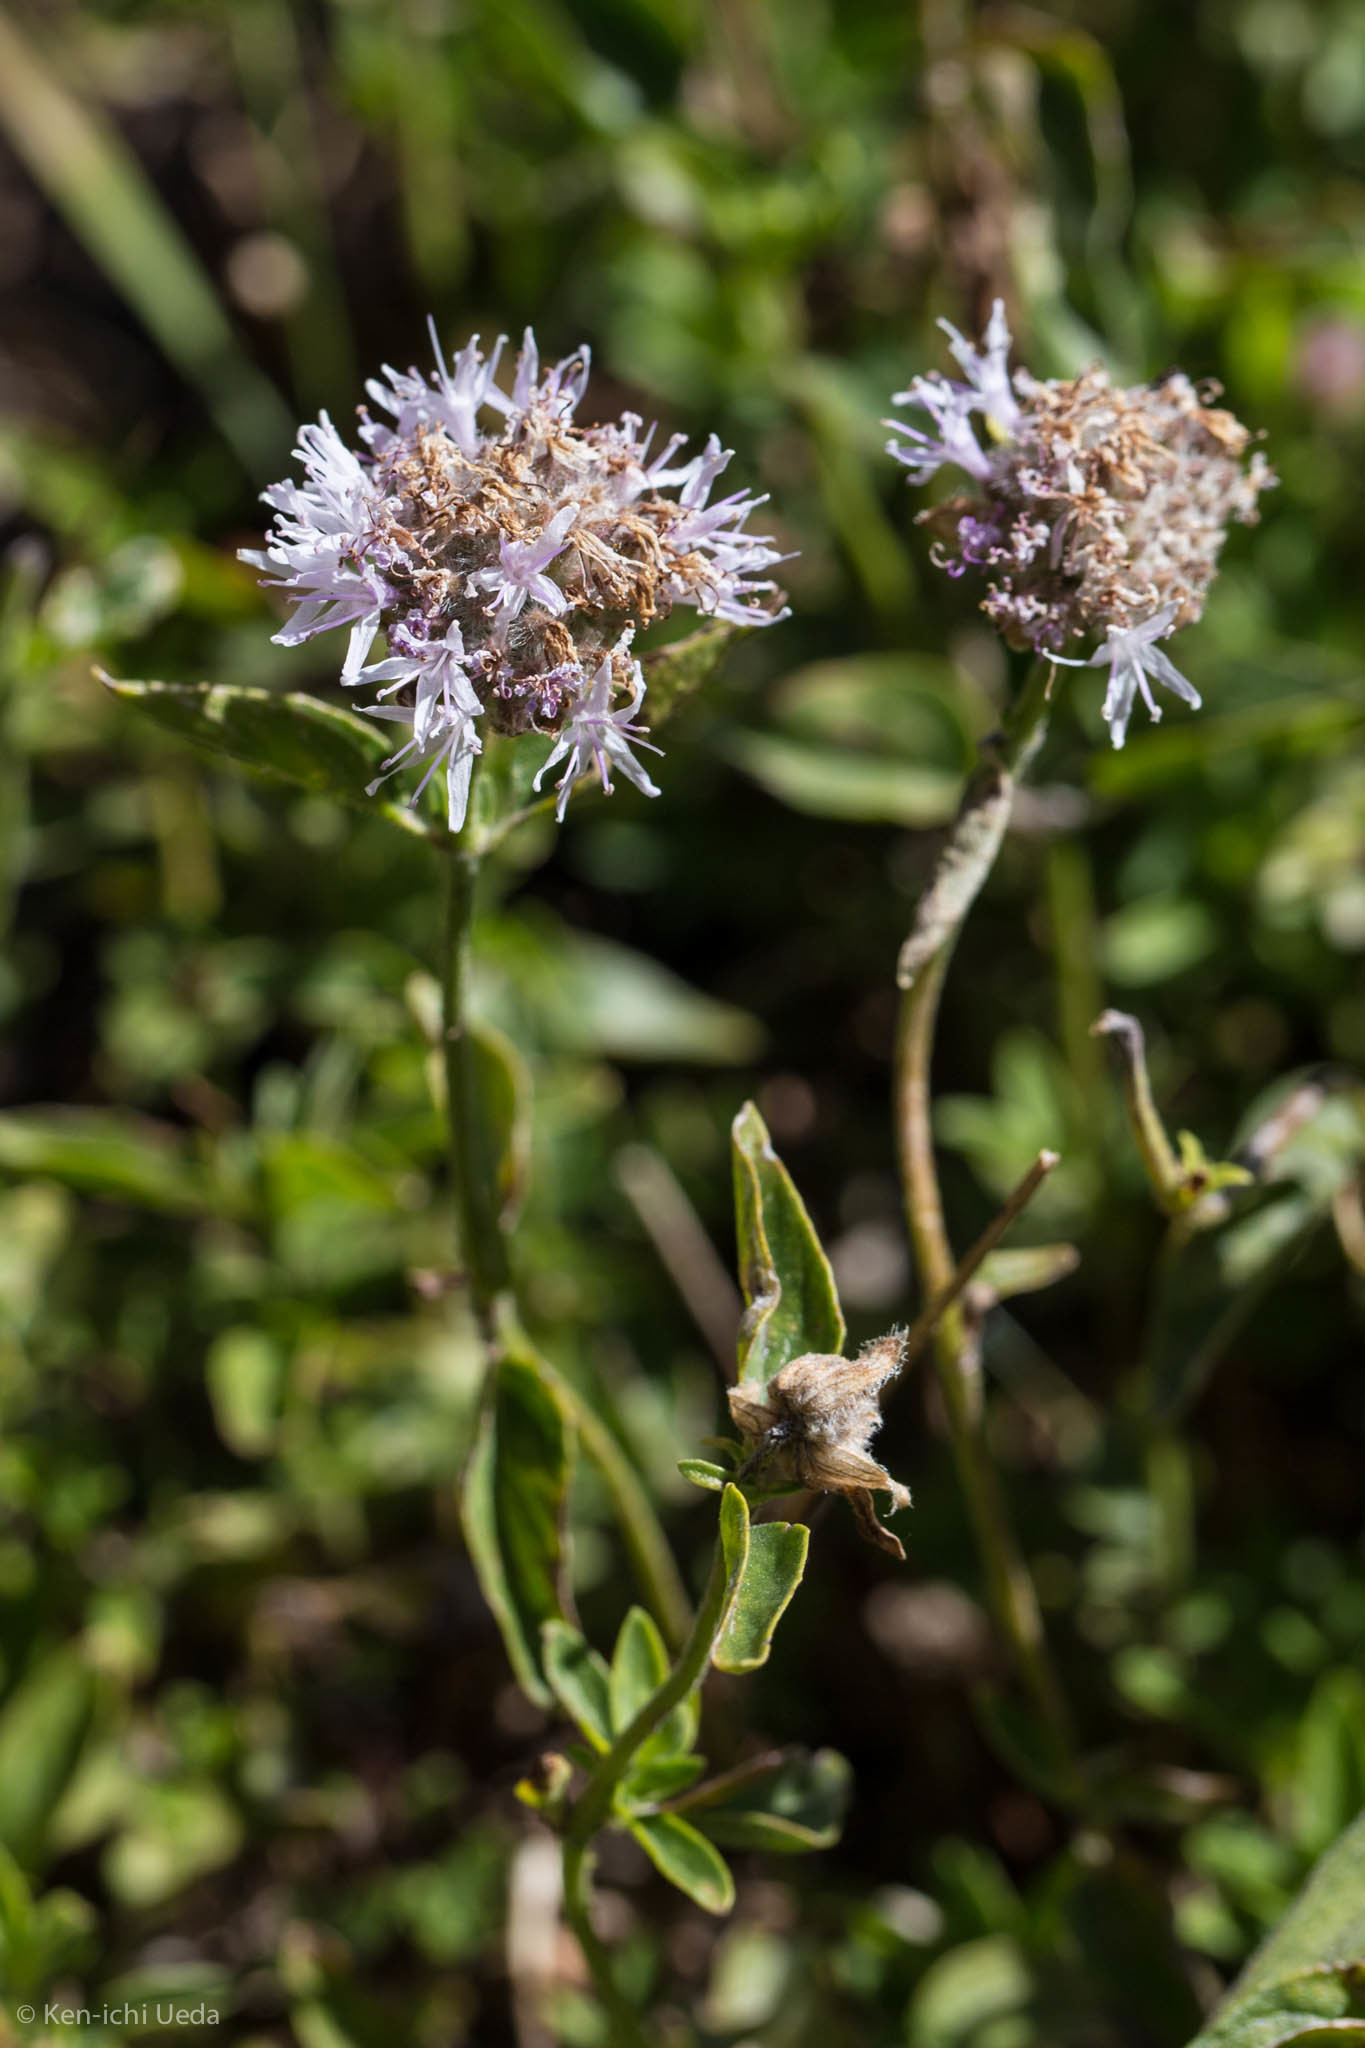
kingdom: Plantae
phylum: Tracheophyta
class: Magnoliopsida
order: Lamiales
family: Lamiaceae
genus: Monardella
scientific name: Monardella odoratissima
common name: Pacific monardella
